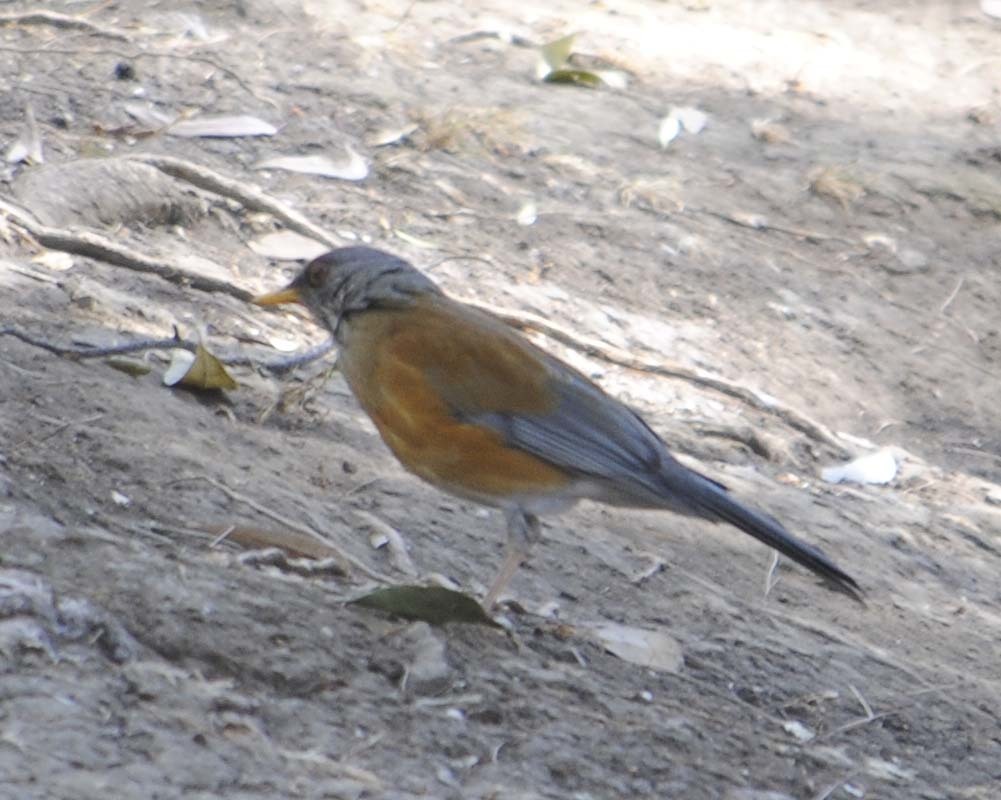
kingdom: Animalia
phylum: Chordata
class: Aves
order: Passeriformes
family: Turdidae
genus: Turdus
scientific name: Turdus rufopalliatus
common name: Rufous-backed robin
